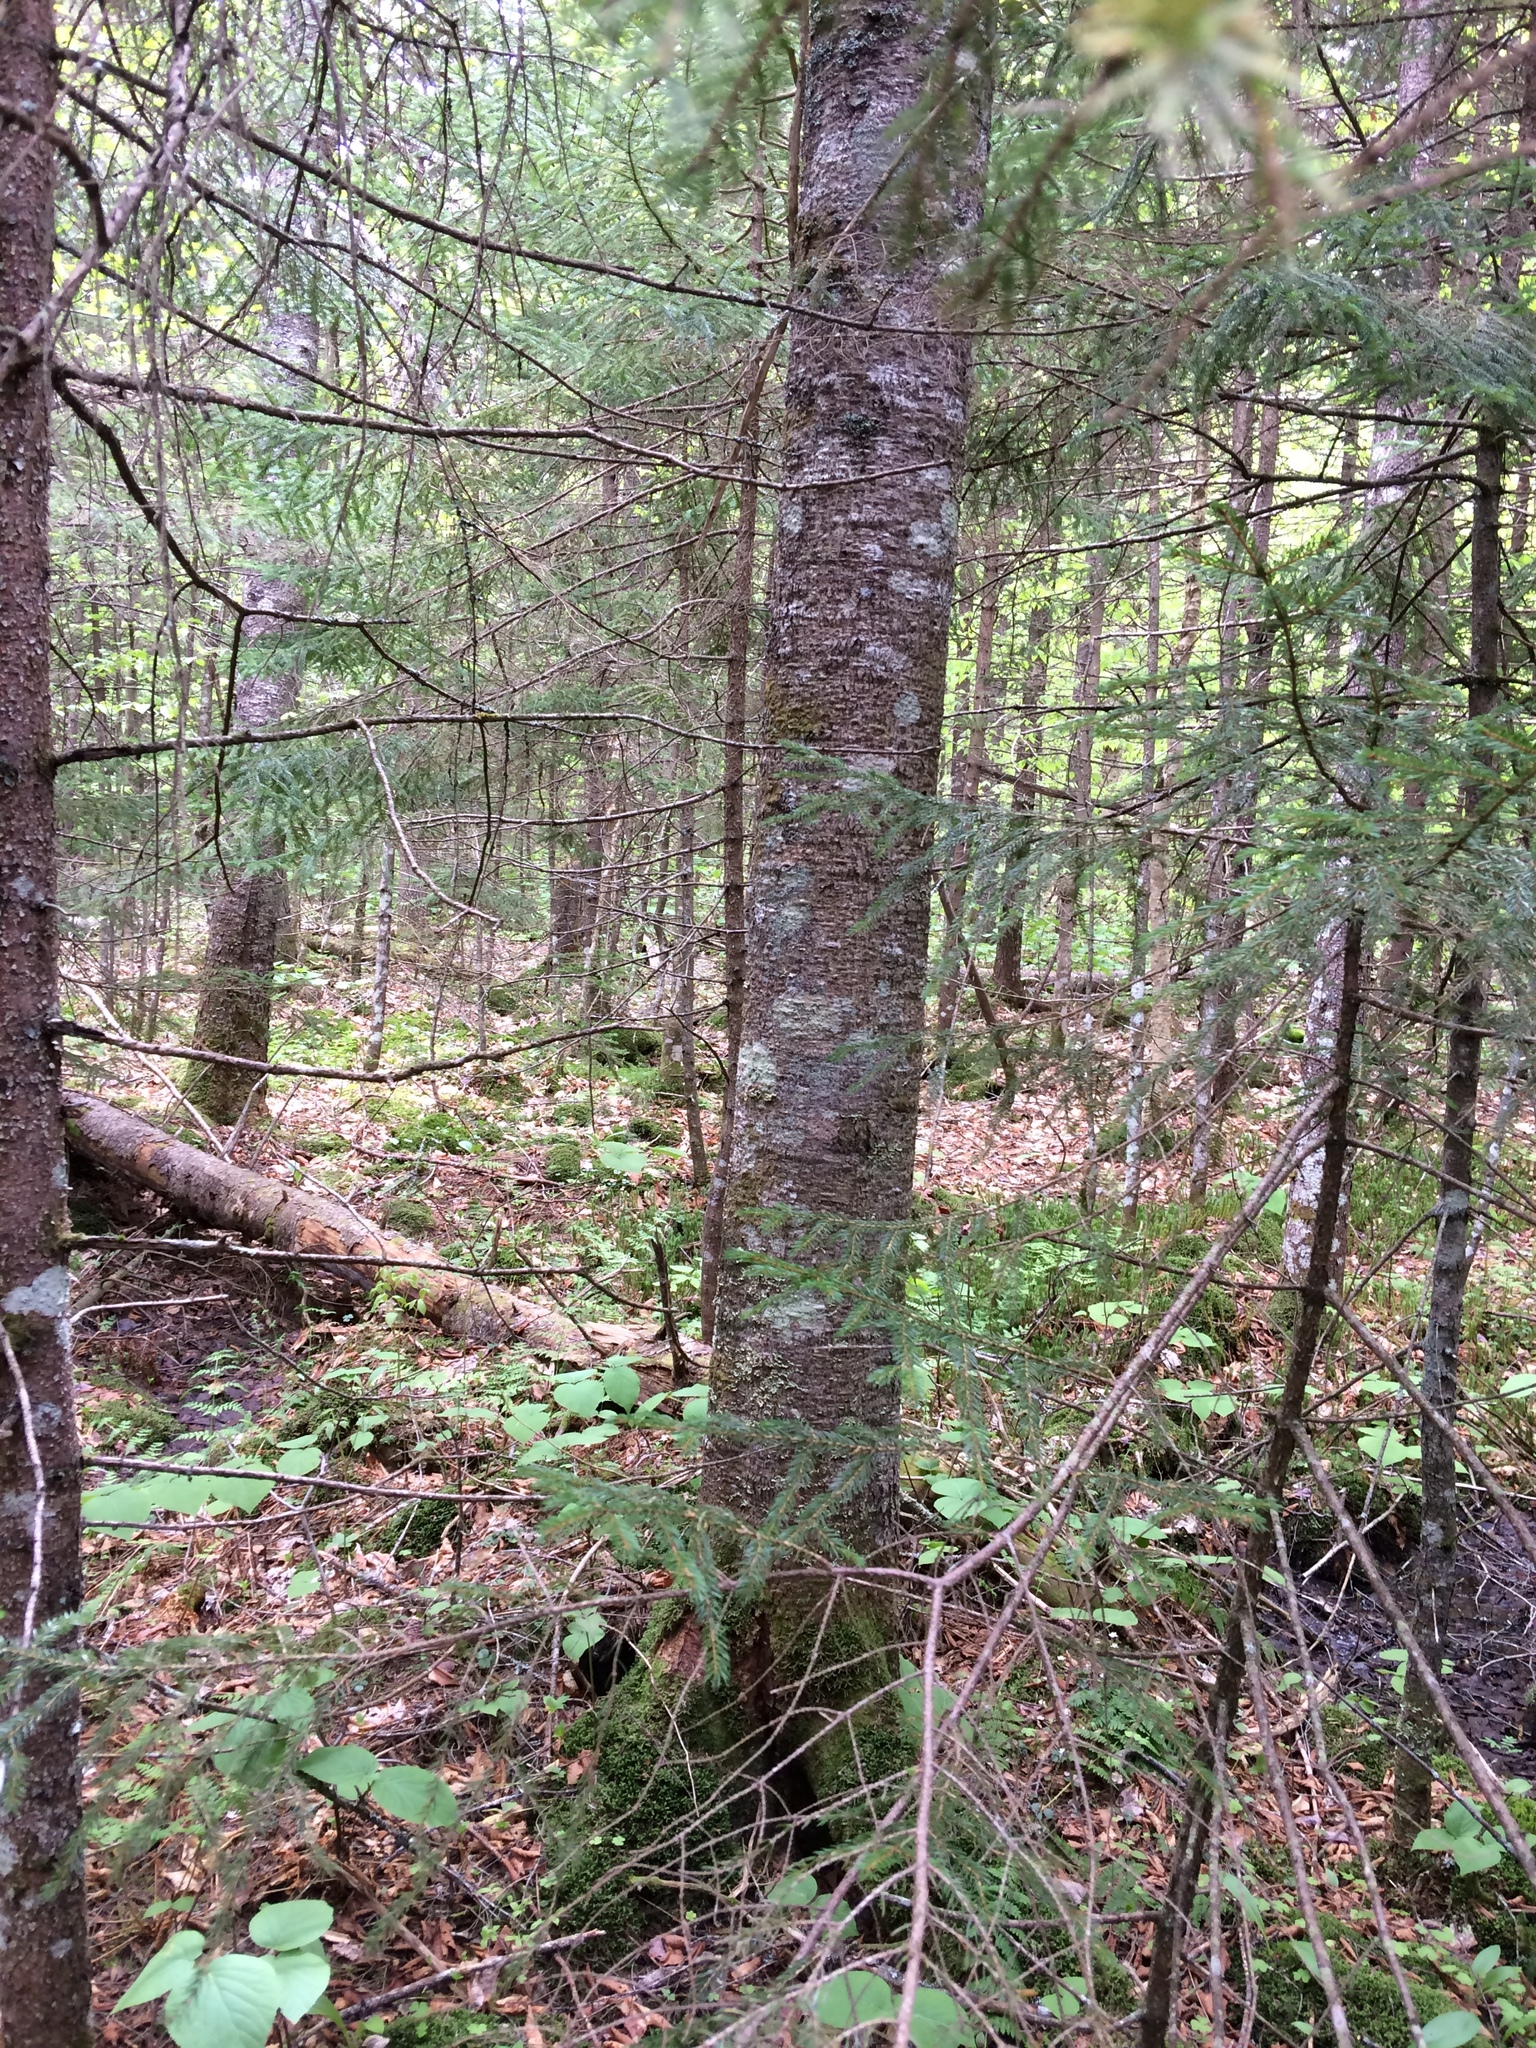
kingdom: Plantae
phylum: Tracheophyta
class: Pinopsida
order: Pinales
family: Pinaceae
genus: Abies
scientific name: Abies balsamea
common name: Balsam fir
